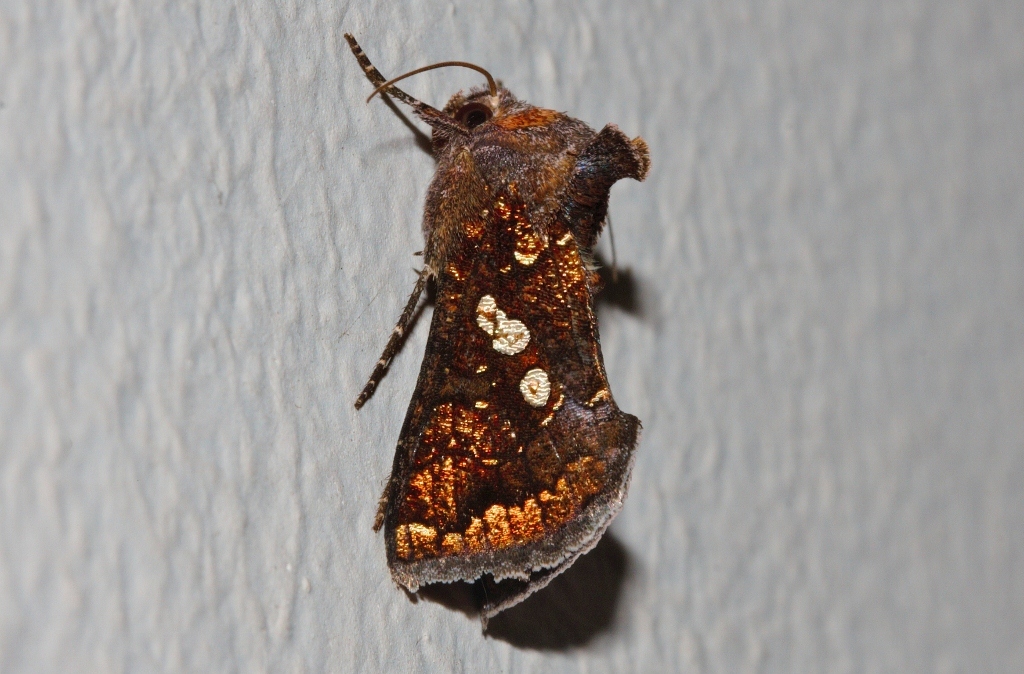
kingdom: Animalia
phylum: Arthropoda
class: Insecta
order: Lepidoptera
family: Noctuidae
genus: Thysanoplusia
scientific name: Thysanoplusia cupreomicans
